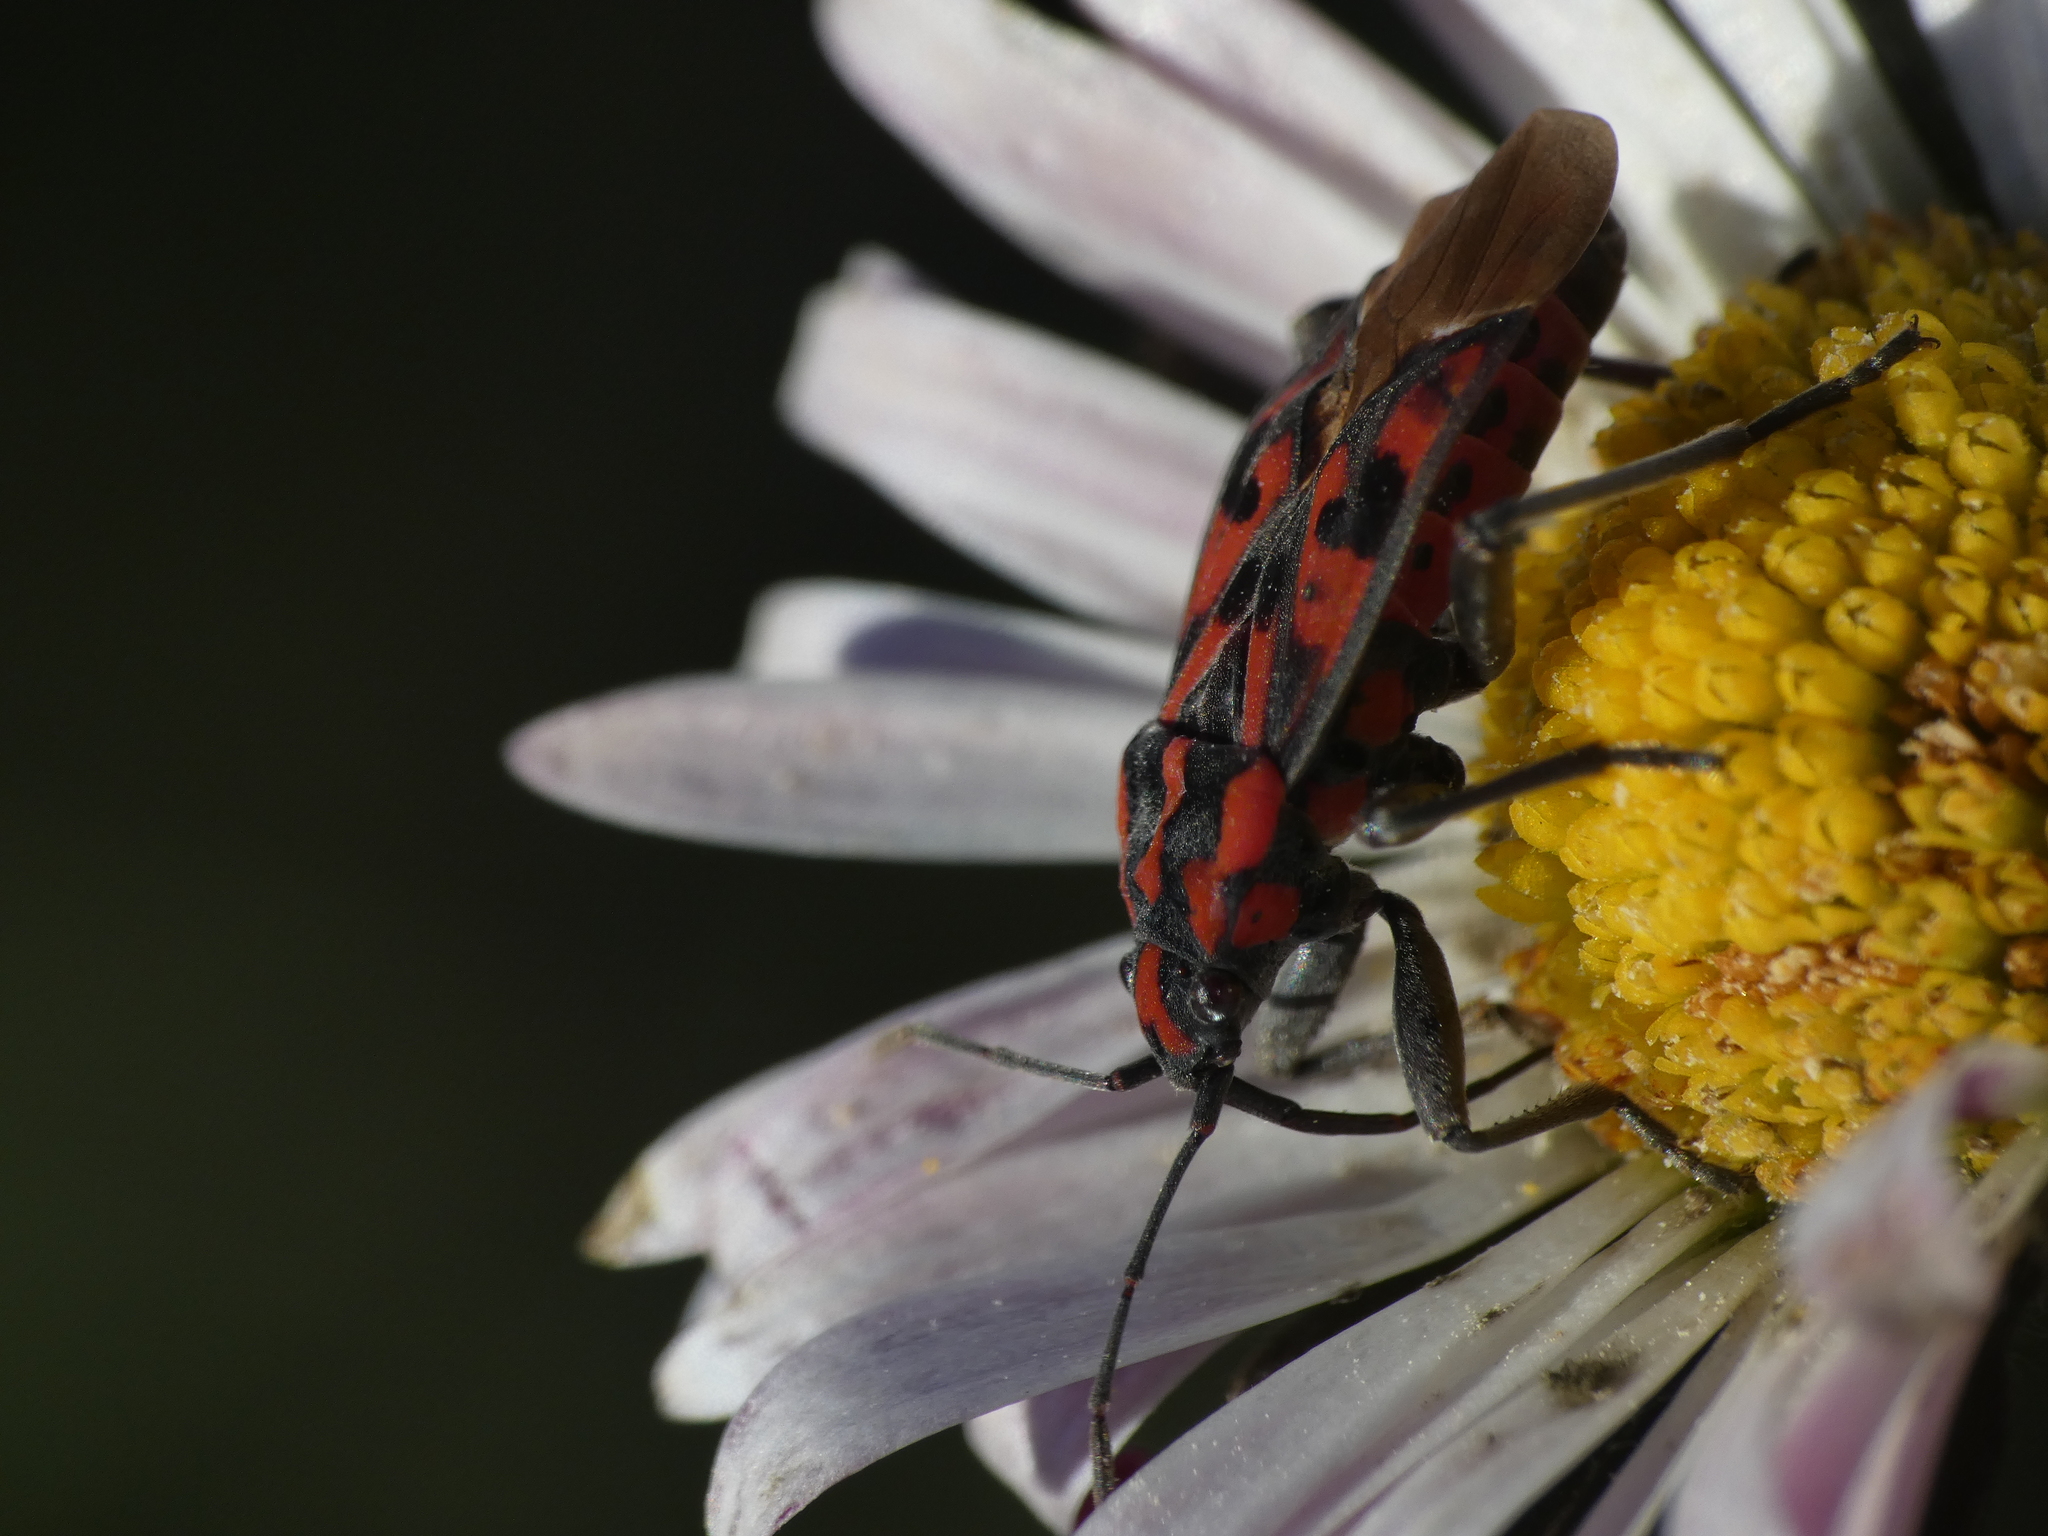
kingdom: Animalia
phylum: Arthropoda
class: Insecta
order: Hemiptera
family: Lygaeidae
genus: Spilostethus
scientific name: Spilostethus saxatilis
